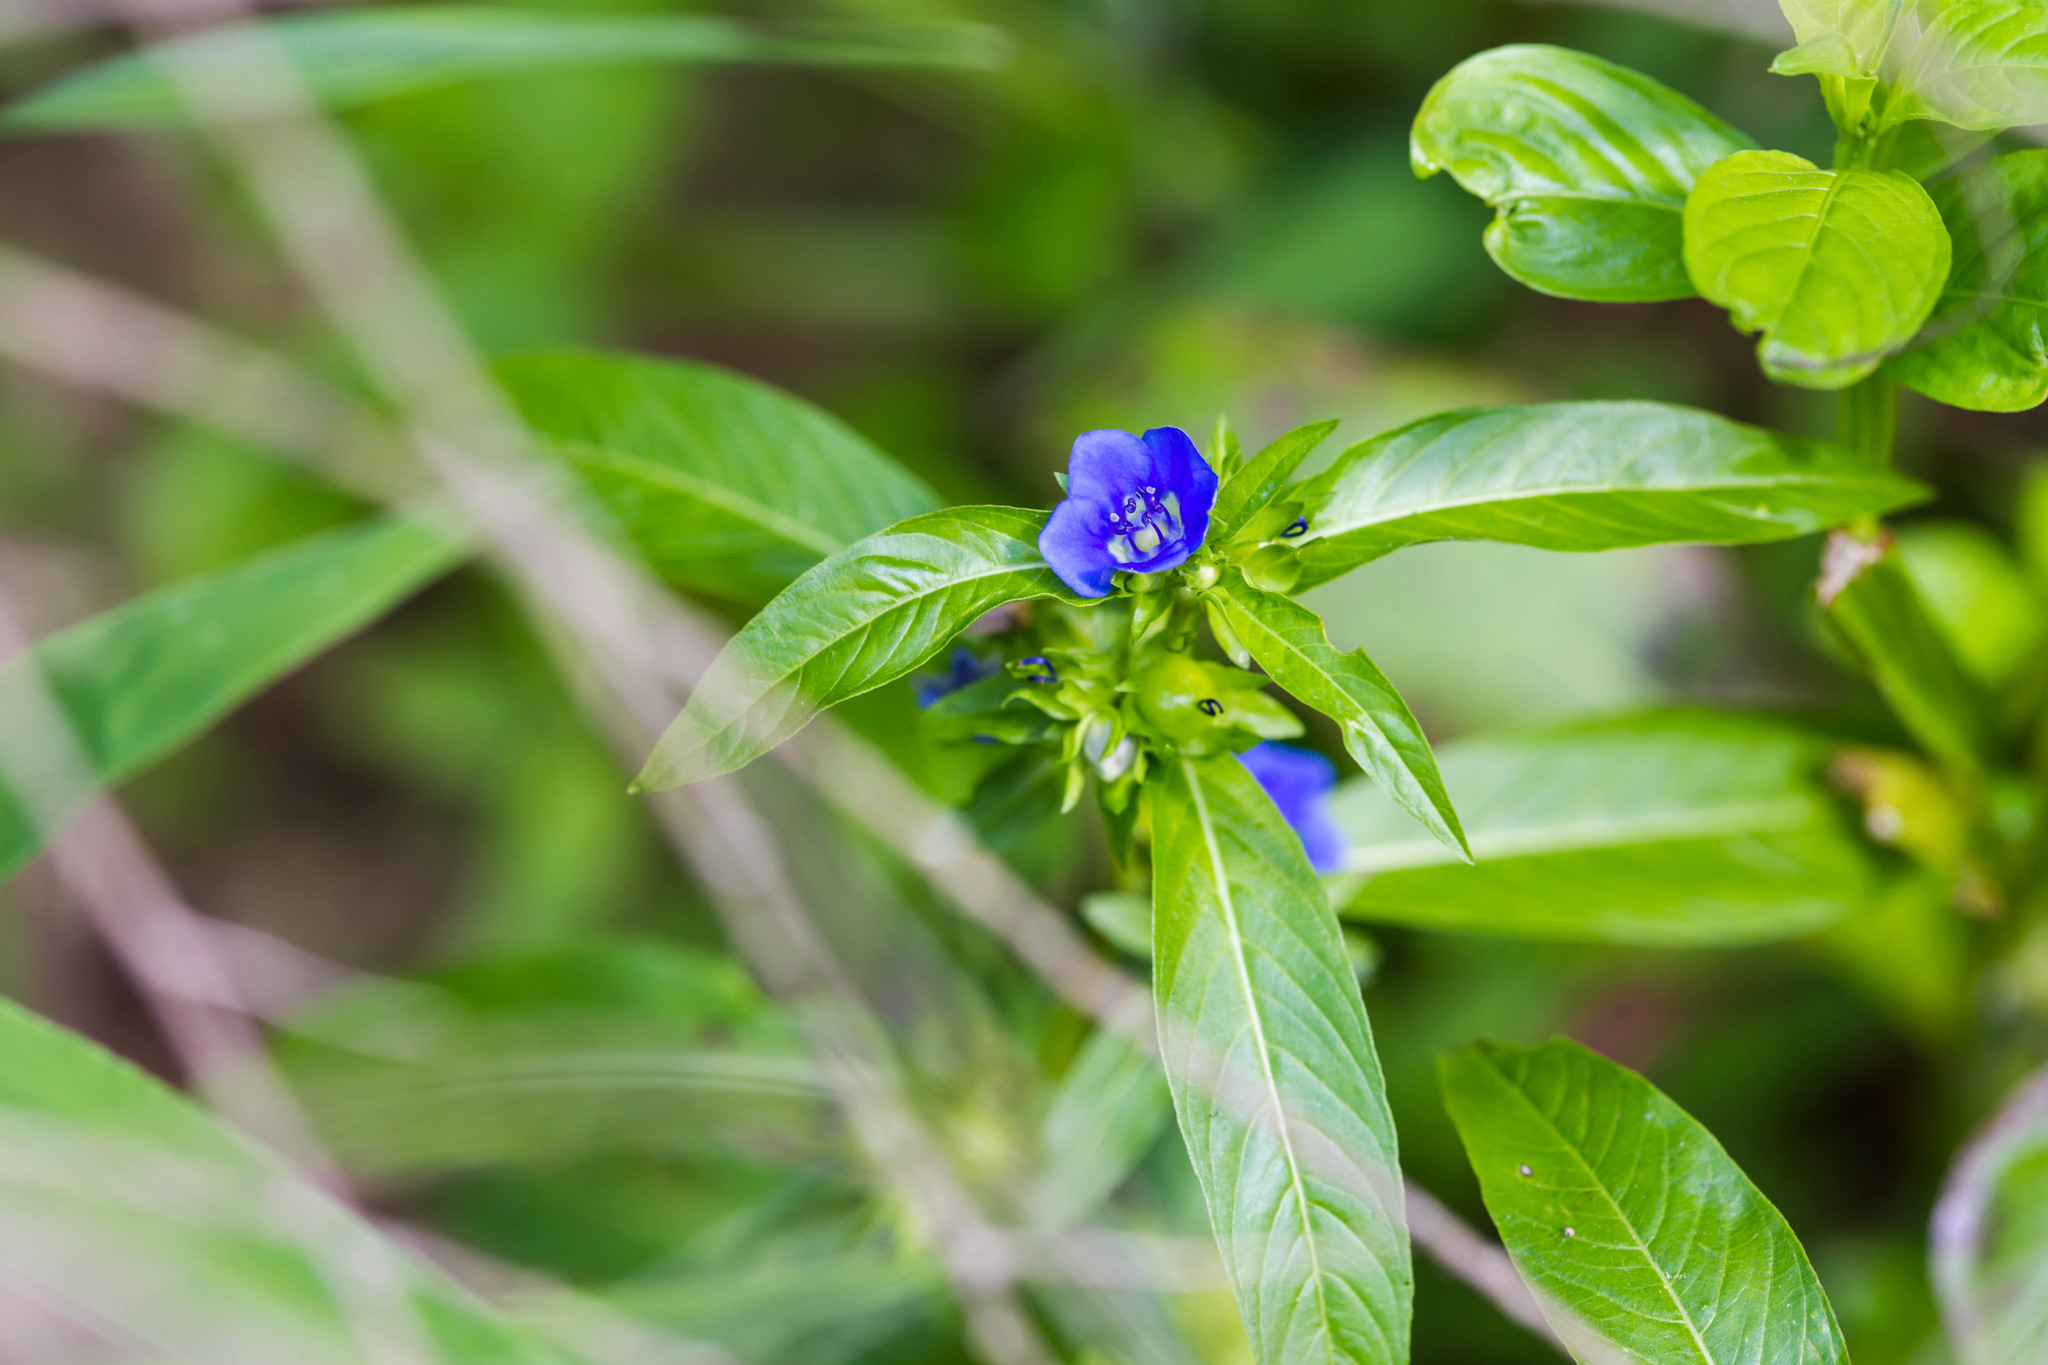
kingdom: Plantae
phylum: Tracheophyta
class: Magnoliopsida
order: Solanales
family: Hydroleaceae
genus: Hydrolea
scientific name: Hydrolea uniflora
